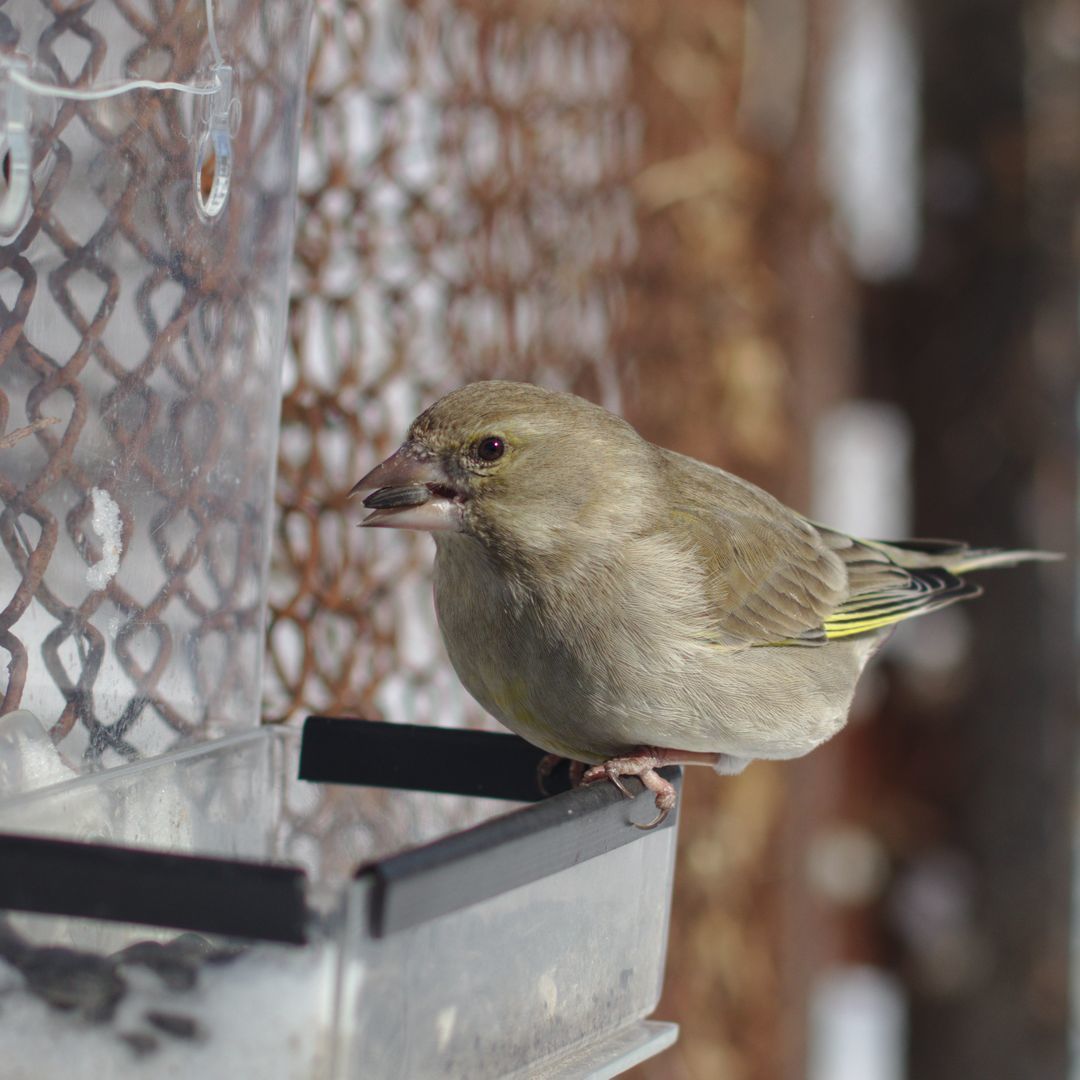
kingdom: Plantae
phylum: Tracheophyta
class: Liliopsida
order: Poales
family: Poaceae
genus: Chloris
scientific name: Chloris chloris
